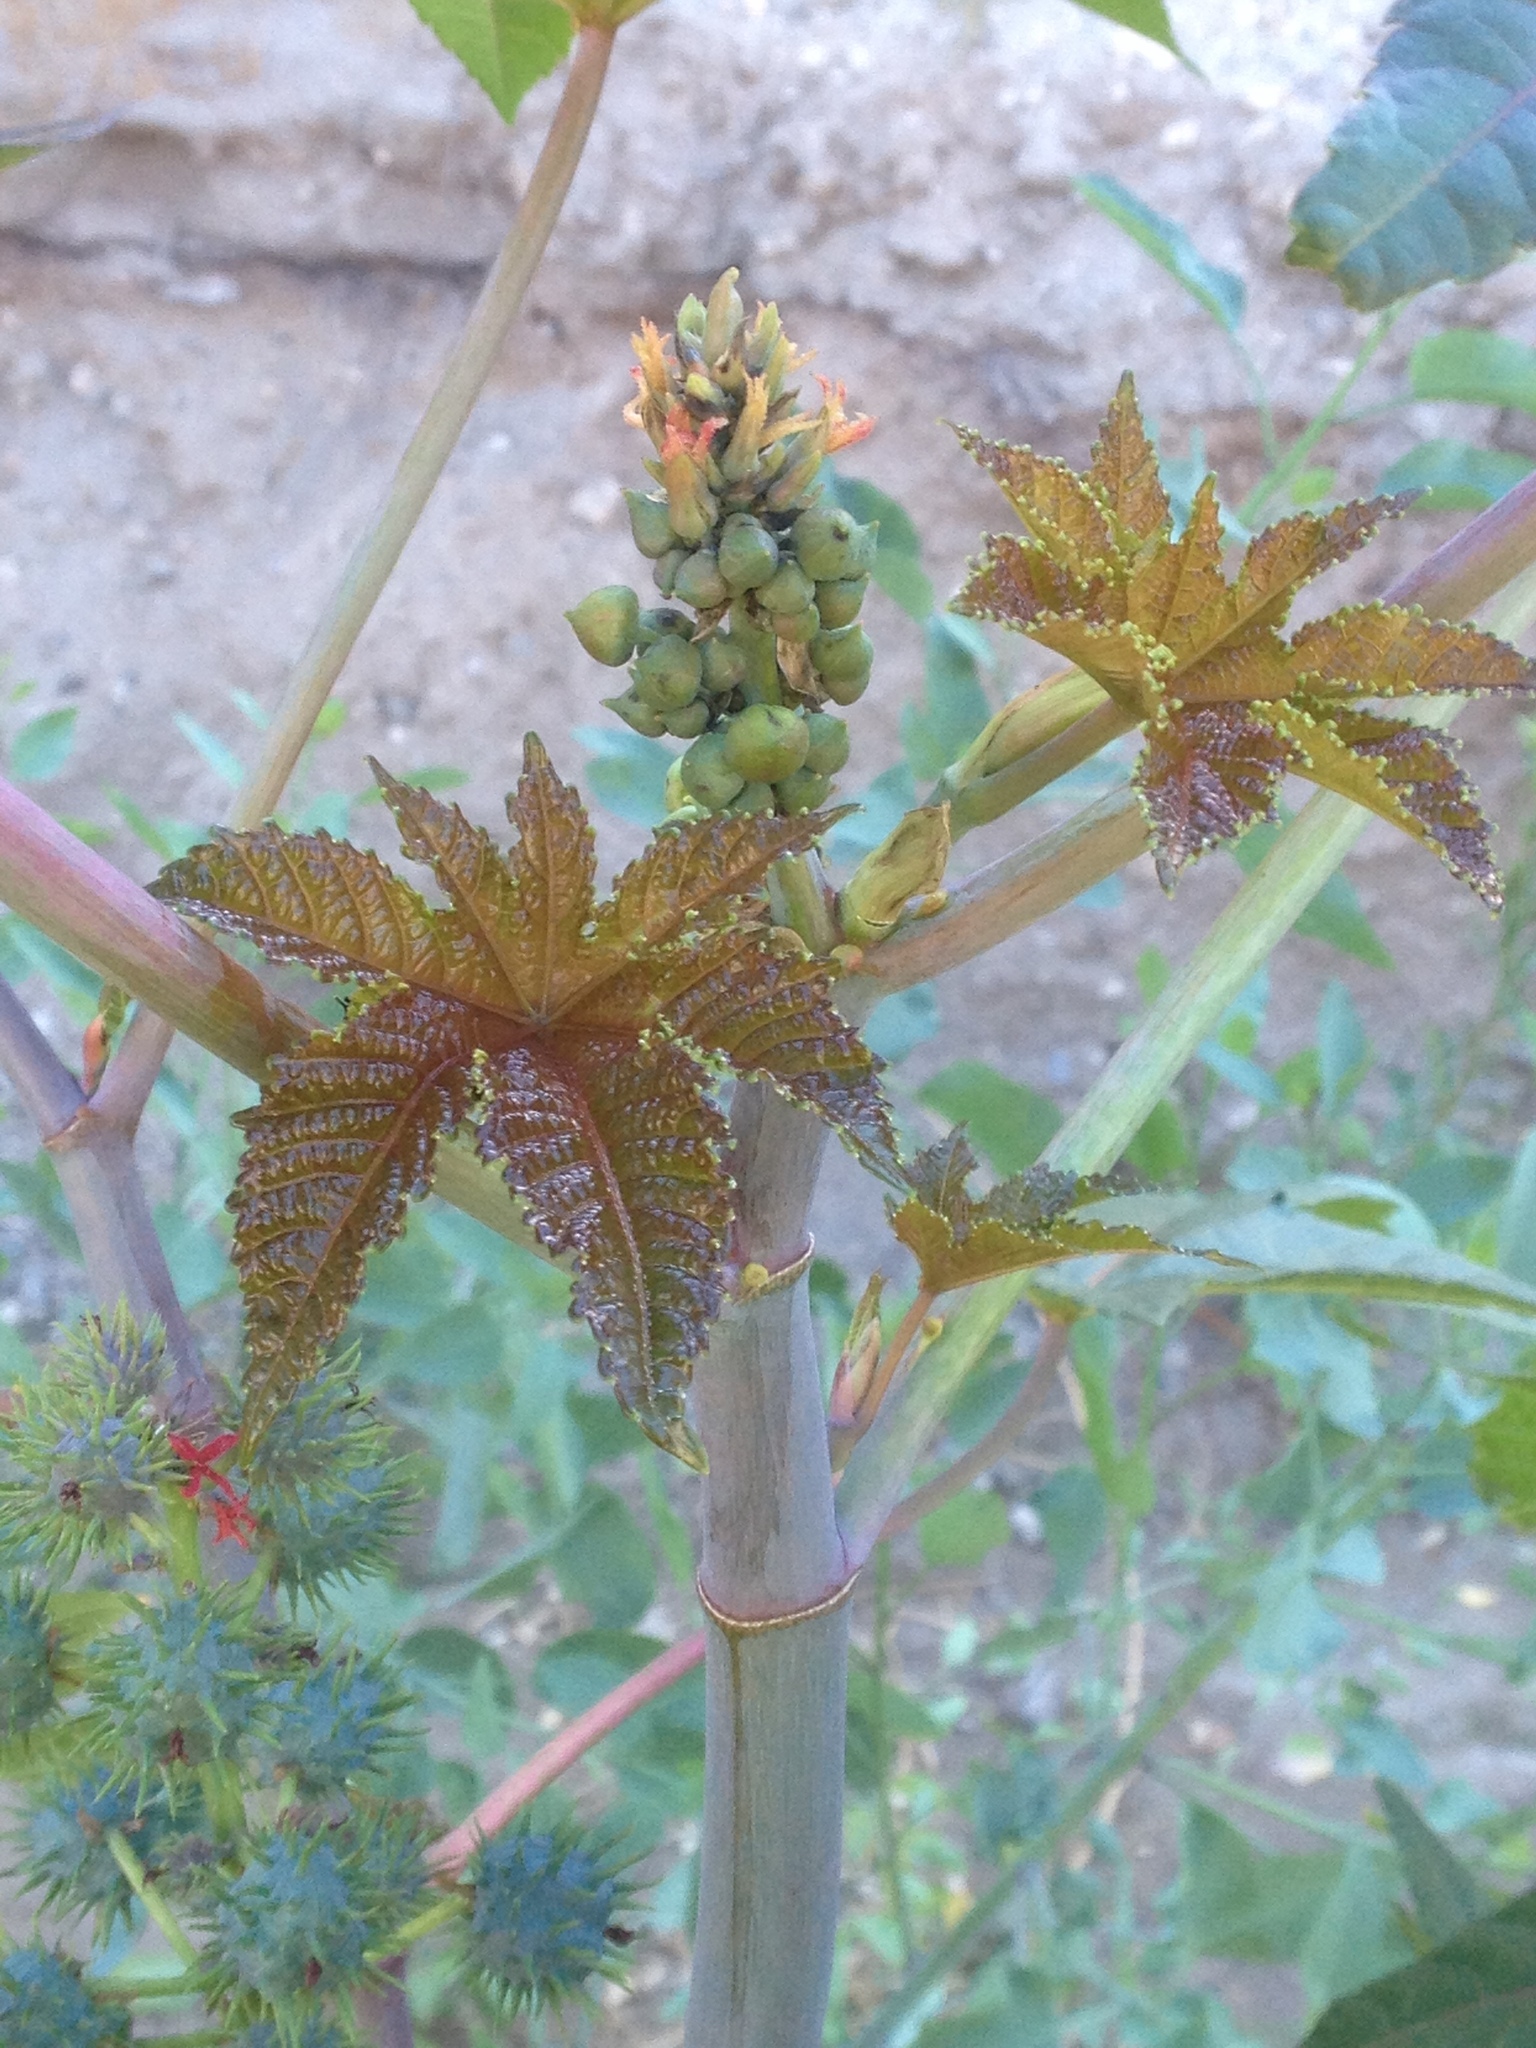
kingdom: Plantae
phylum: Tracheophyta
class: Magnoliopsida
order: Malpighiales
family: Euphorbiaceae
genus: Ricinus
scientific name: Ricinus communis
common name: Castor-oil-plant
